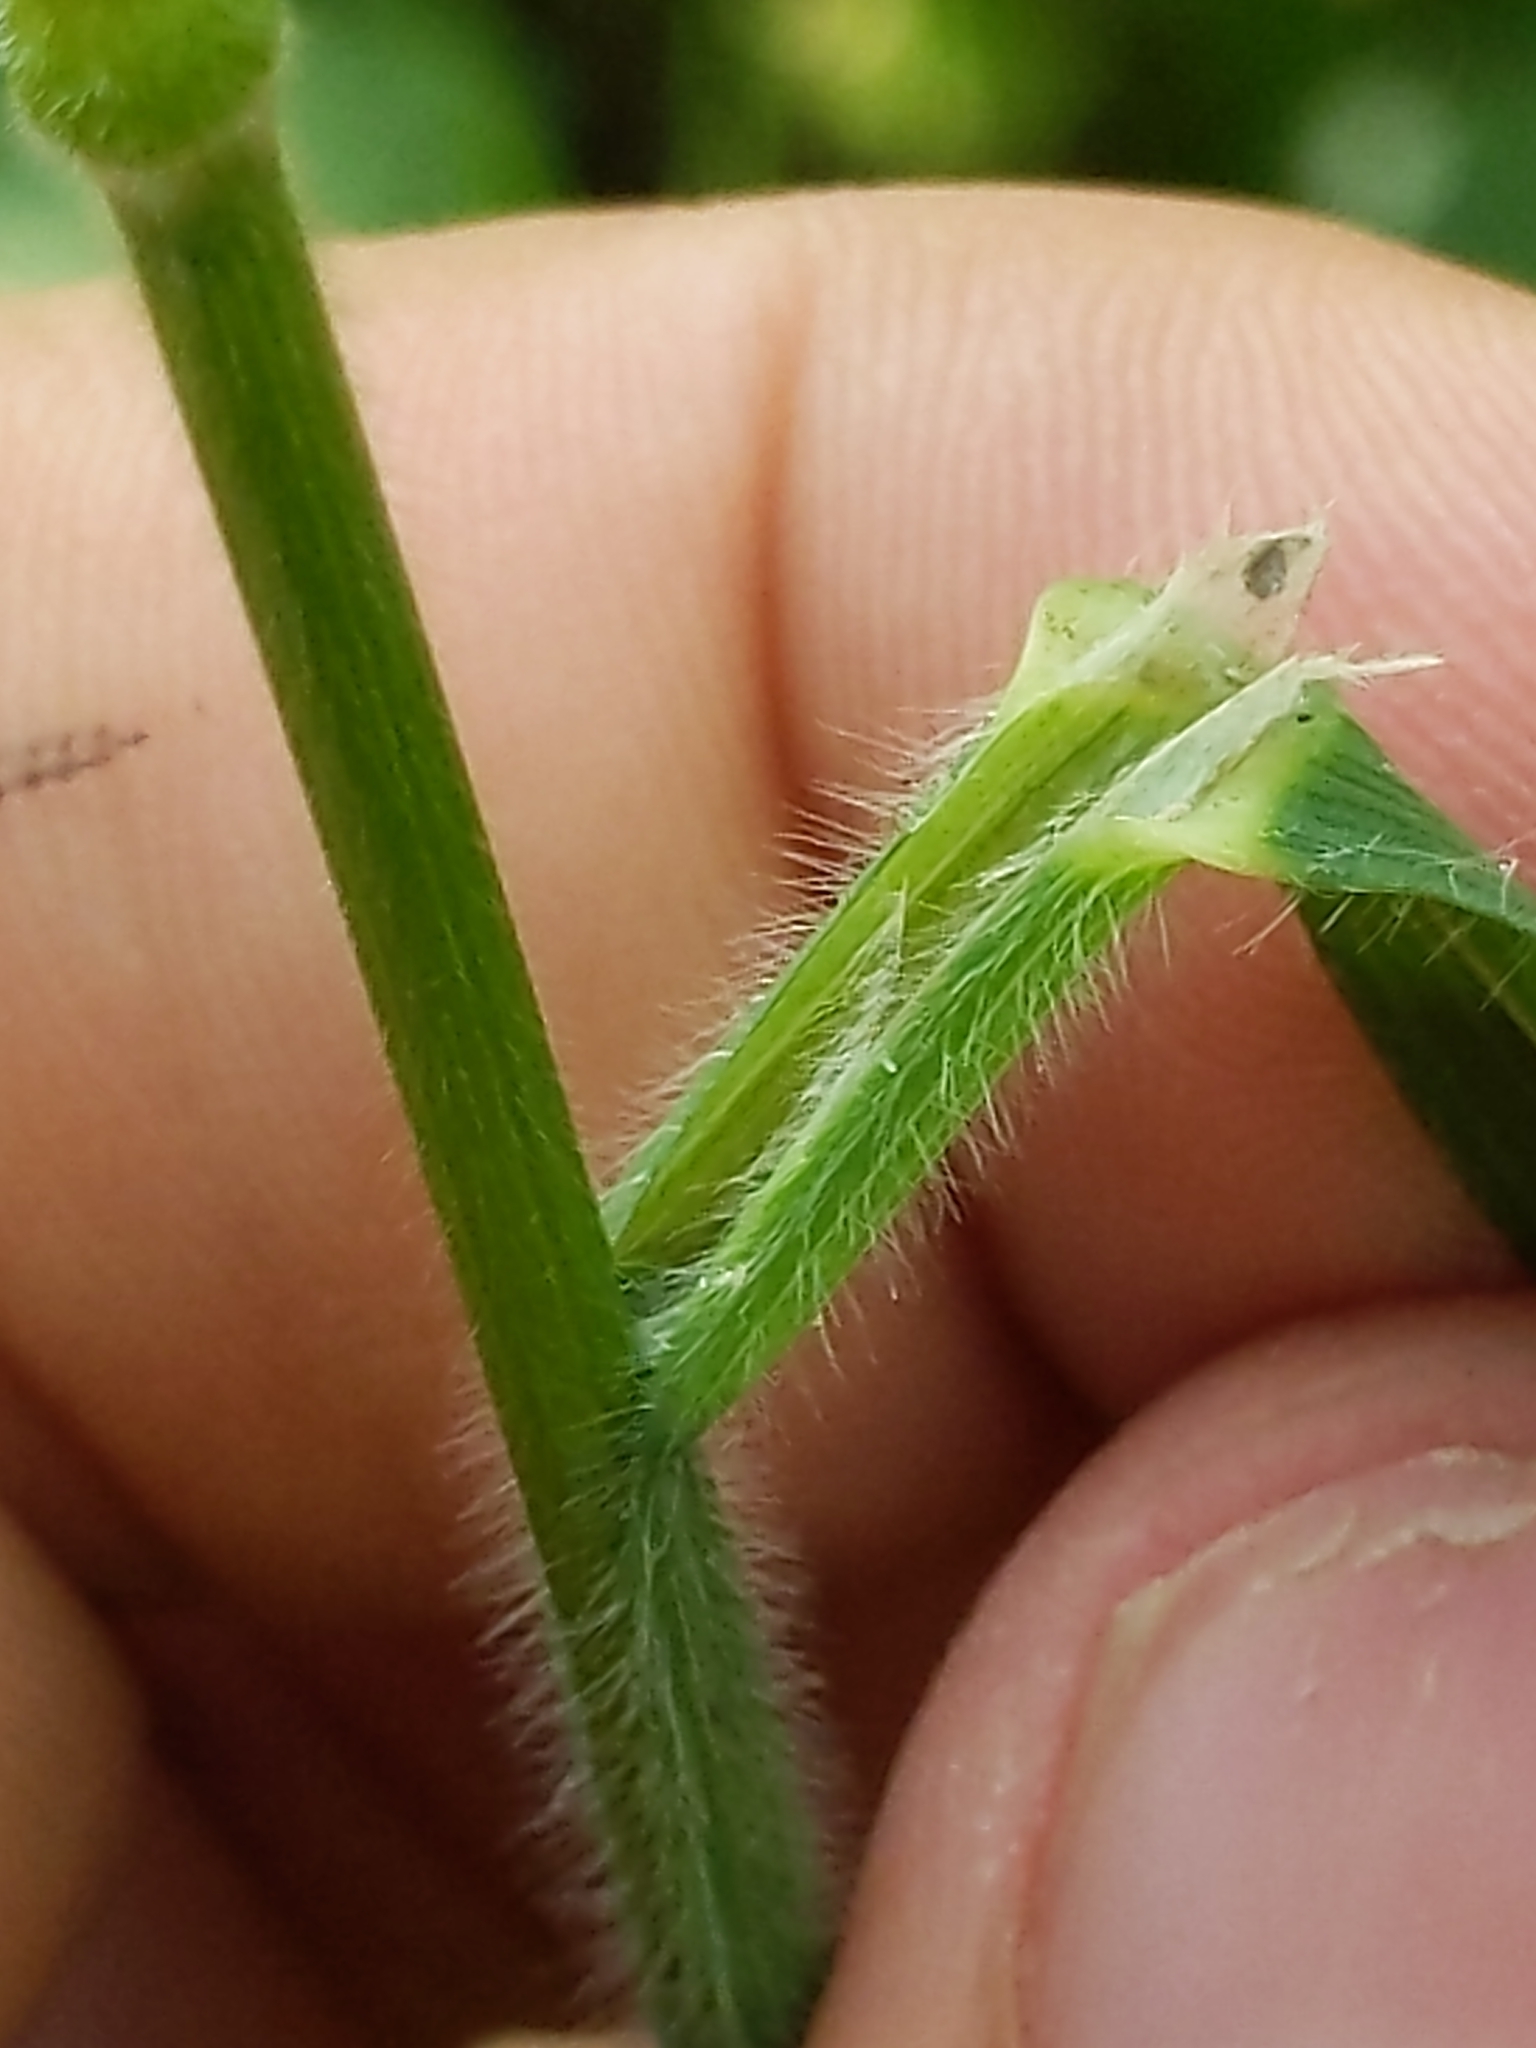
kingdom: Plantae
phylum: Tracheophyta
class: Liliopsida
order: Poales
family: Poaceae
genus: Bromus
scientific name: Bromus laevipes
